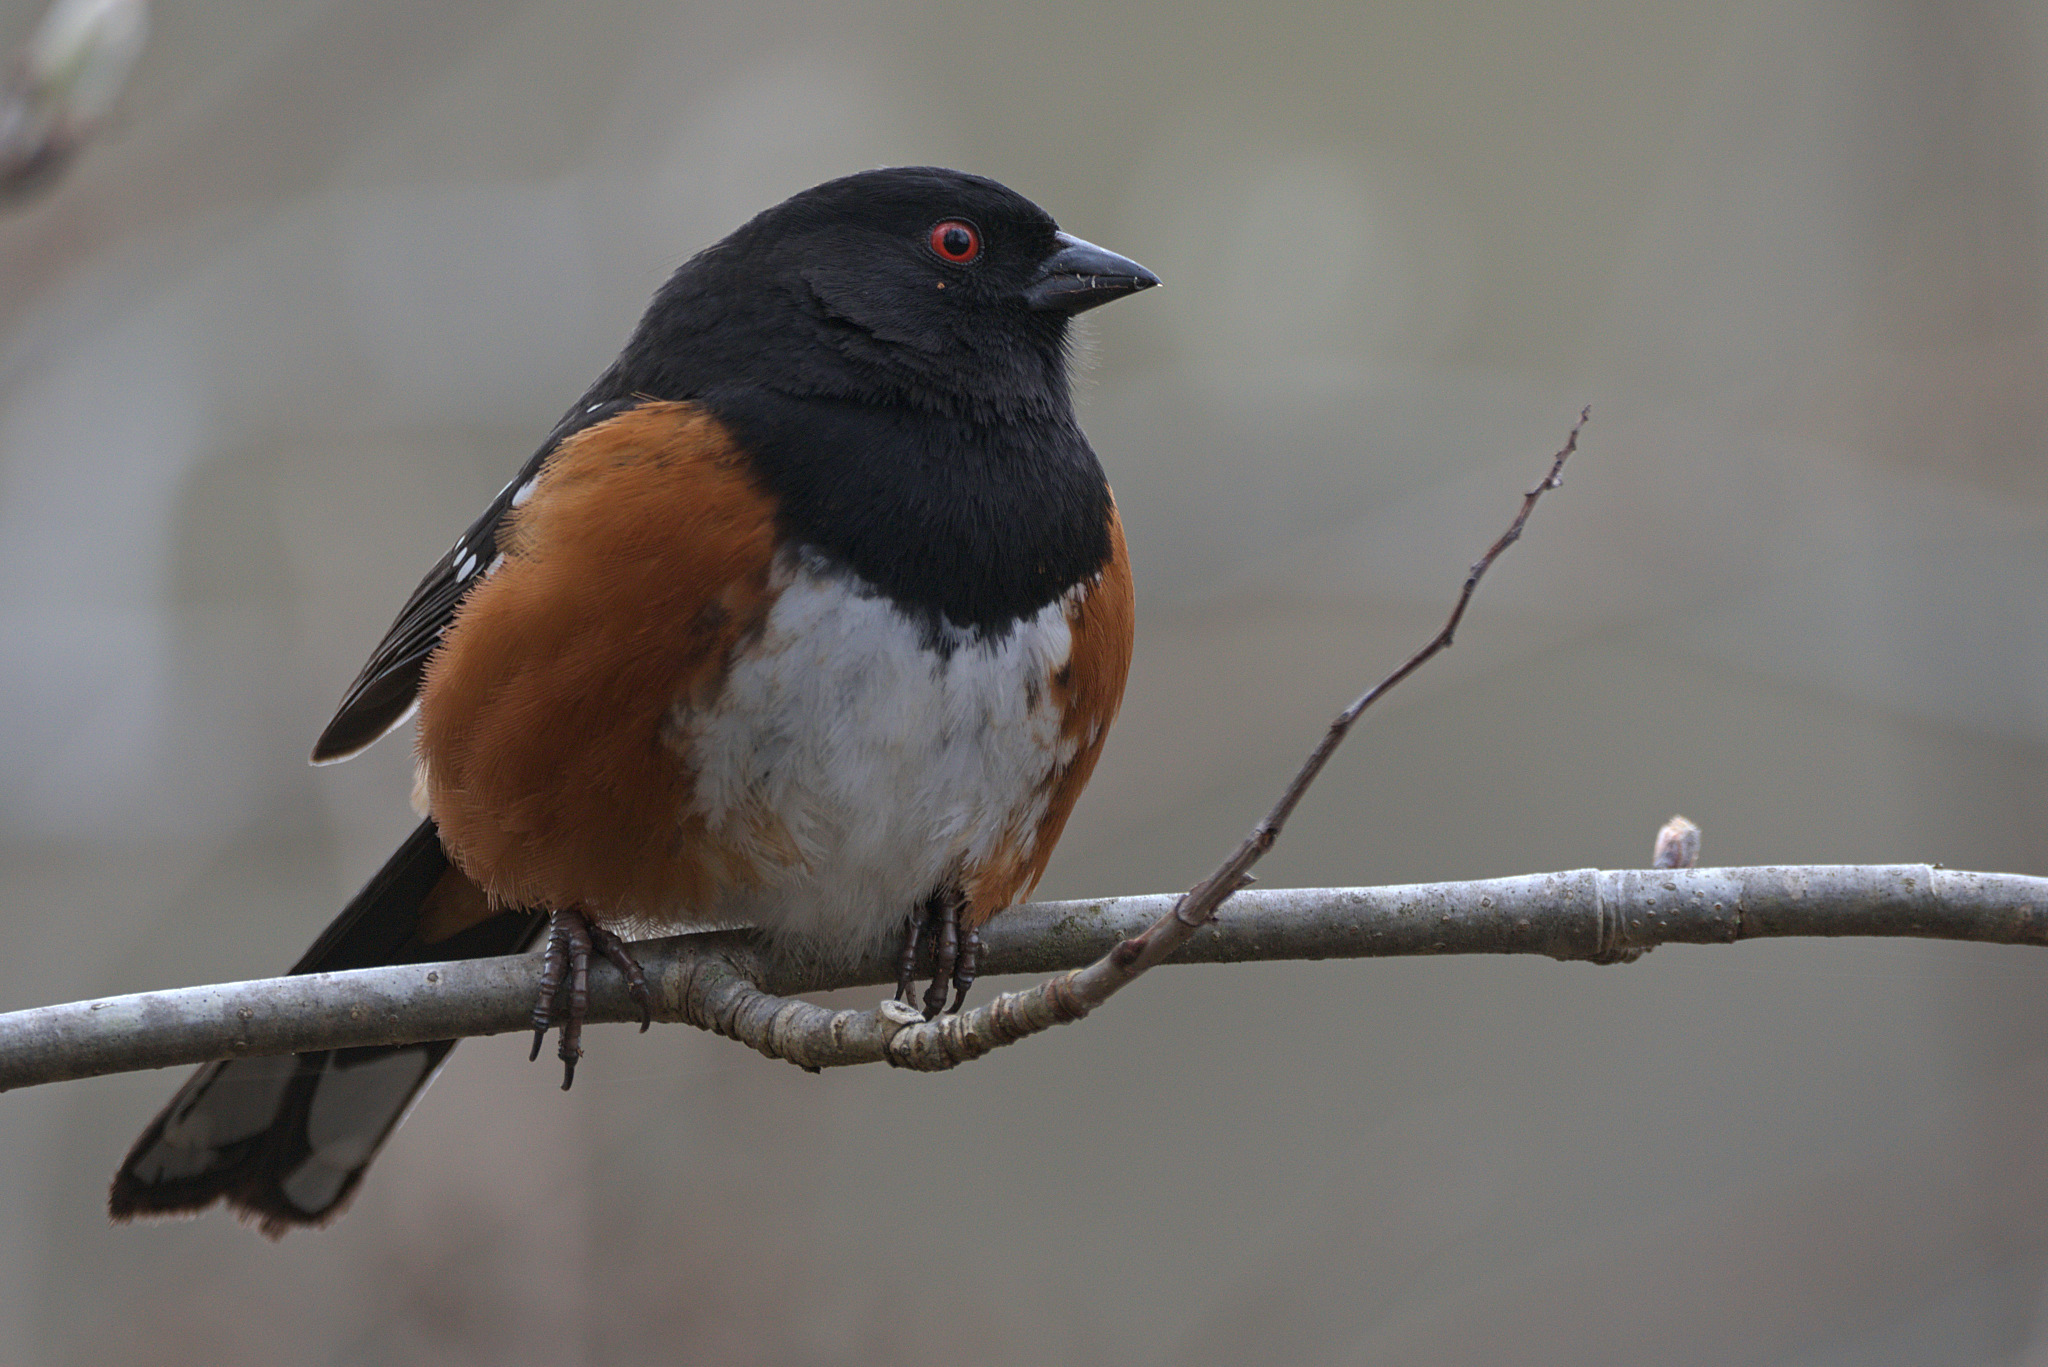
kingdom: Animalia
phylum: Chordata
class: Aves
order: Passeriformes
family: Passerellidae
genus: Pipilo
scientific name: Pipilo maculatus
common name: Spotted towhee
